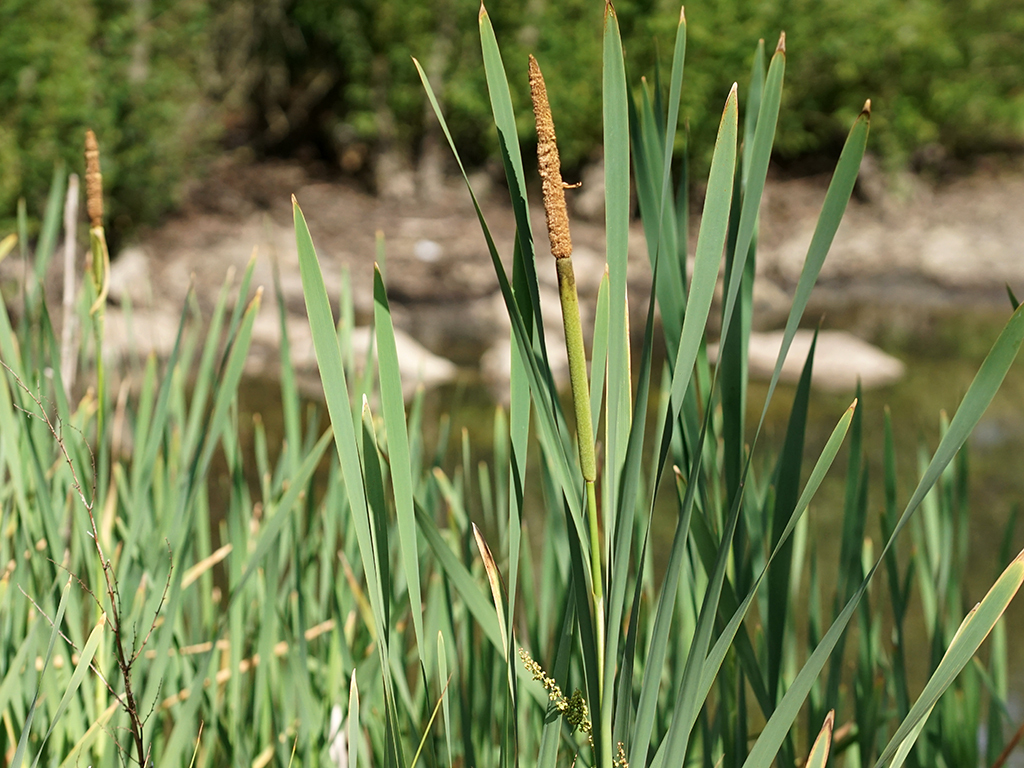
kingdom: Plantae
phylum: Tracheophyta
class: Liliopsida
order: Poales
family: Typhaceae
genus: Typha
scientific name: Typha latifolia
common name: Broadleaf cattail
